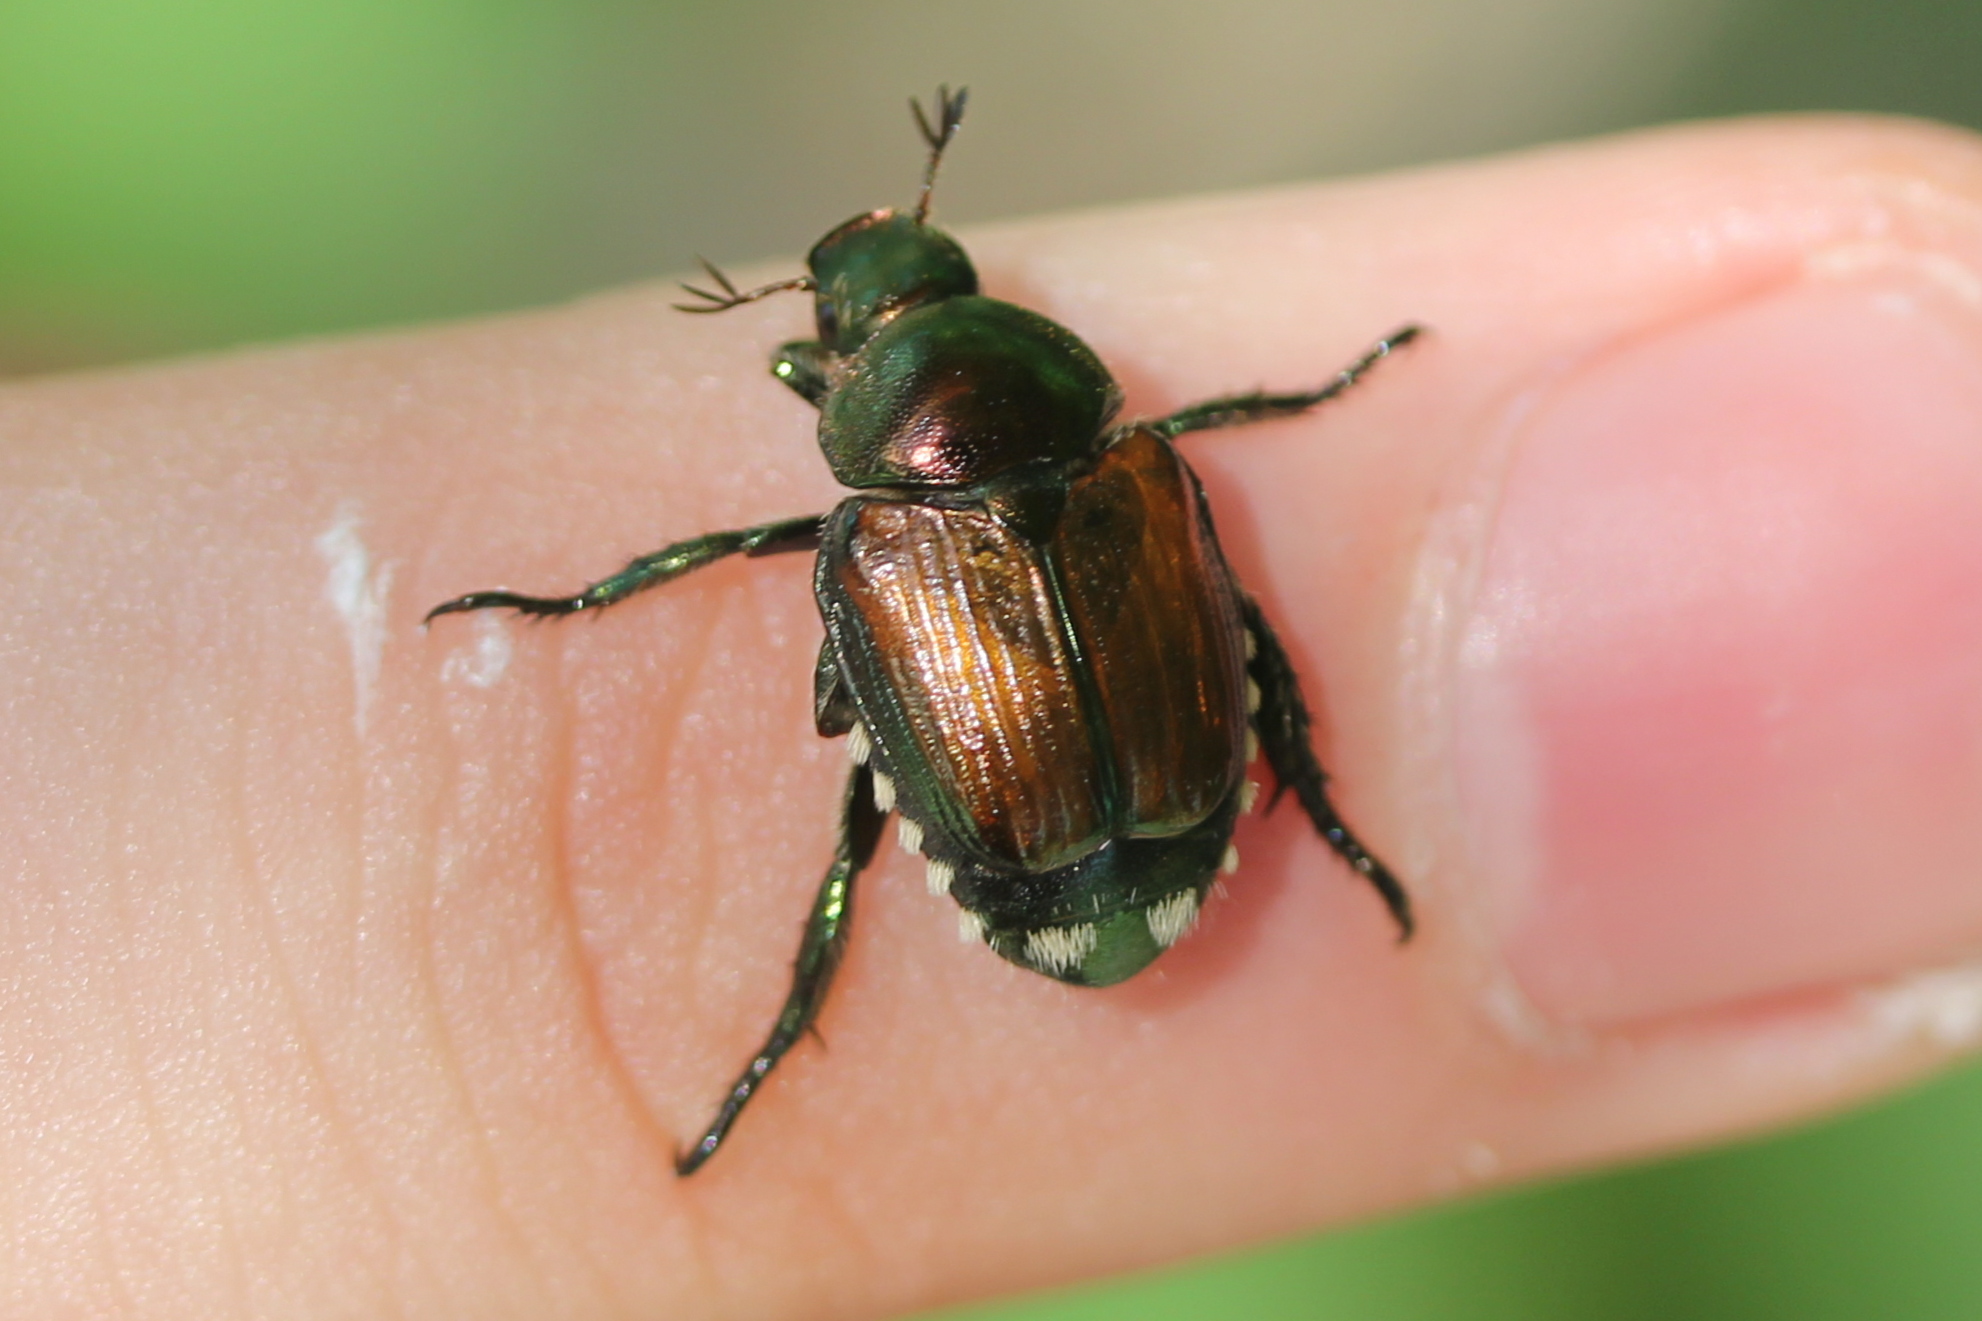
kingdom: Animalia
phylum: Arthropoda
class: Insecta
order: Coleoptera
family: Scarabaeidae
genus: Popillia
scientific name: Popillia japonica
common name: Japanese beetle
